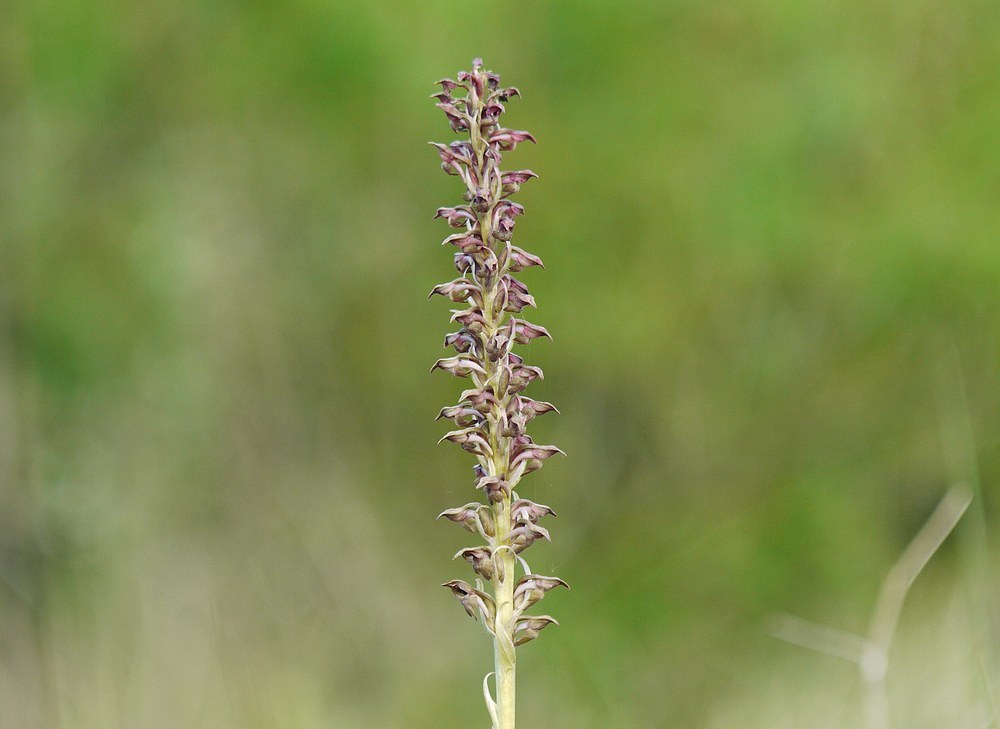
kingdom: Plantae
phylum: Tracheophyta
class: Liliopsida
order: Asparagales
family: Orchidaceae
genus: Anacamptis
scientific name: Anacamptis coriophora
